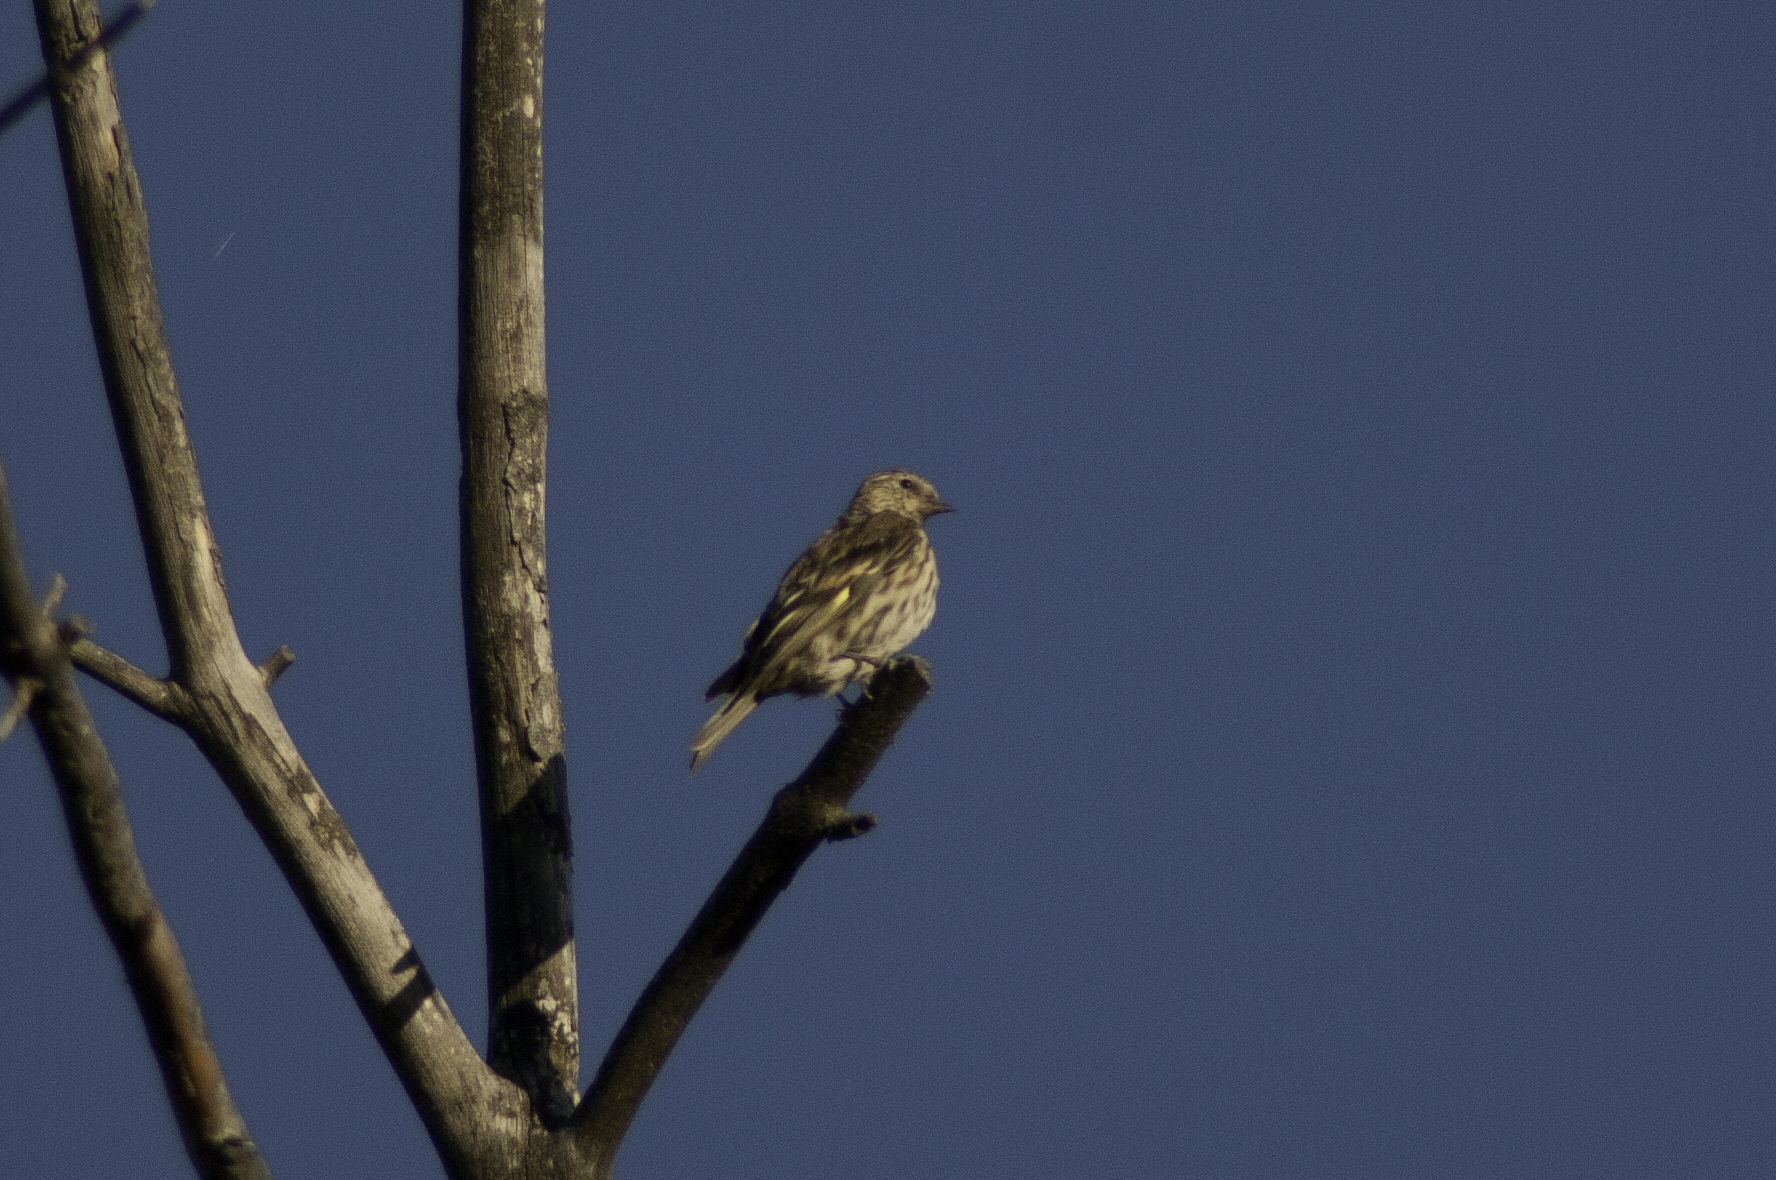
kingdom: Animalia
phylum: Chordata
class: Aves
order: Passeriformes
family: Fringillidae
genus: Spinus
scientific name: Spinus pinus
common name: Pine siskin
